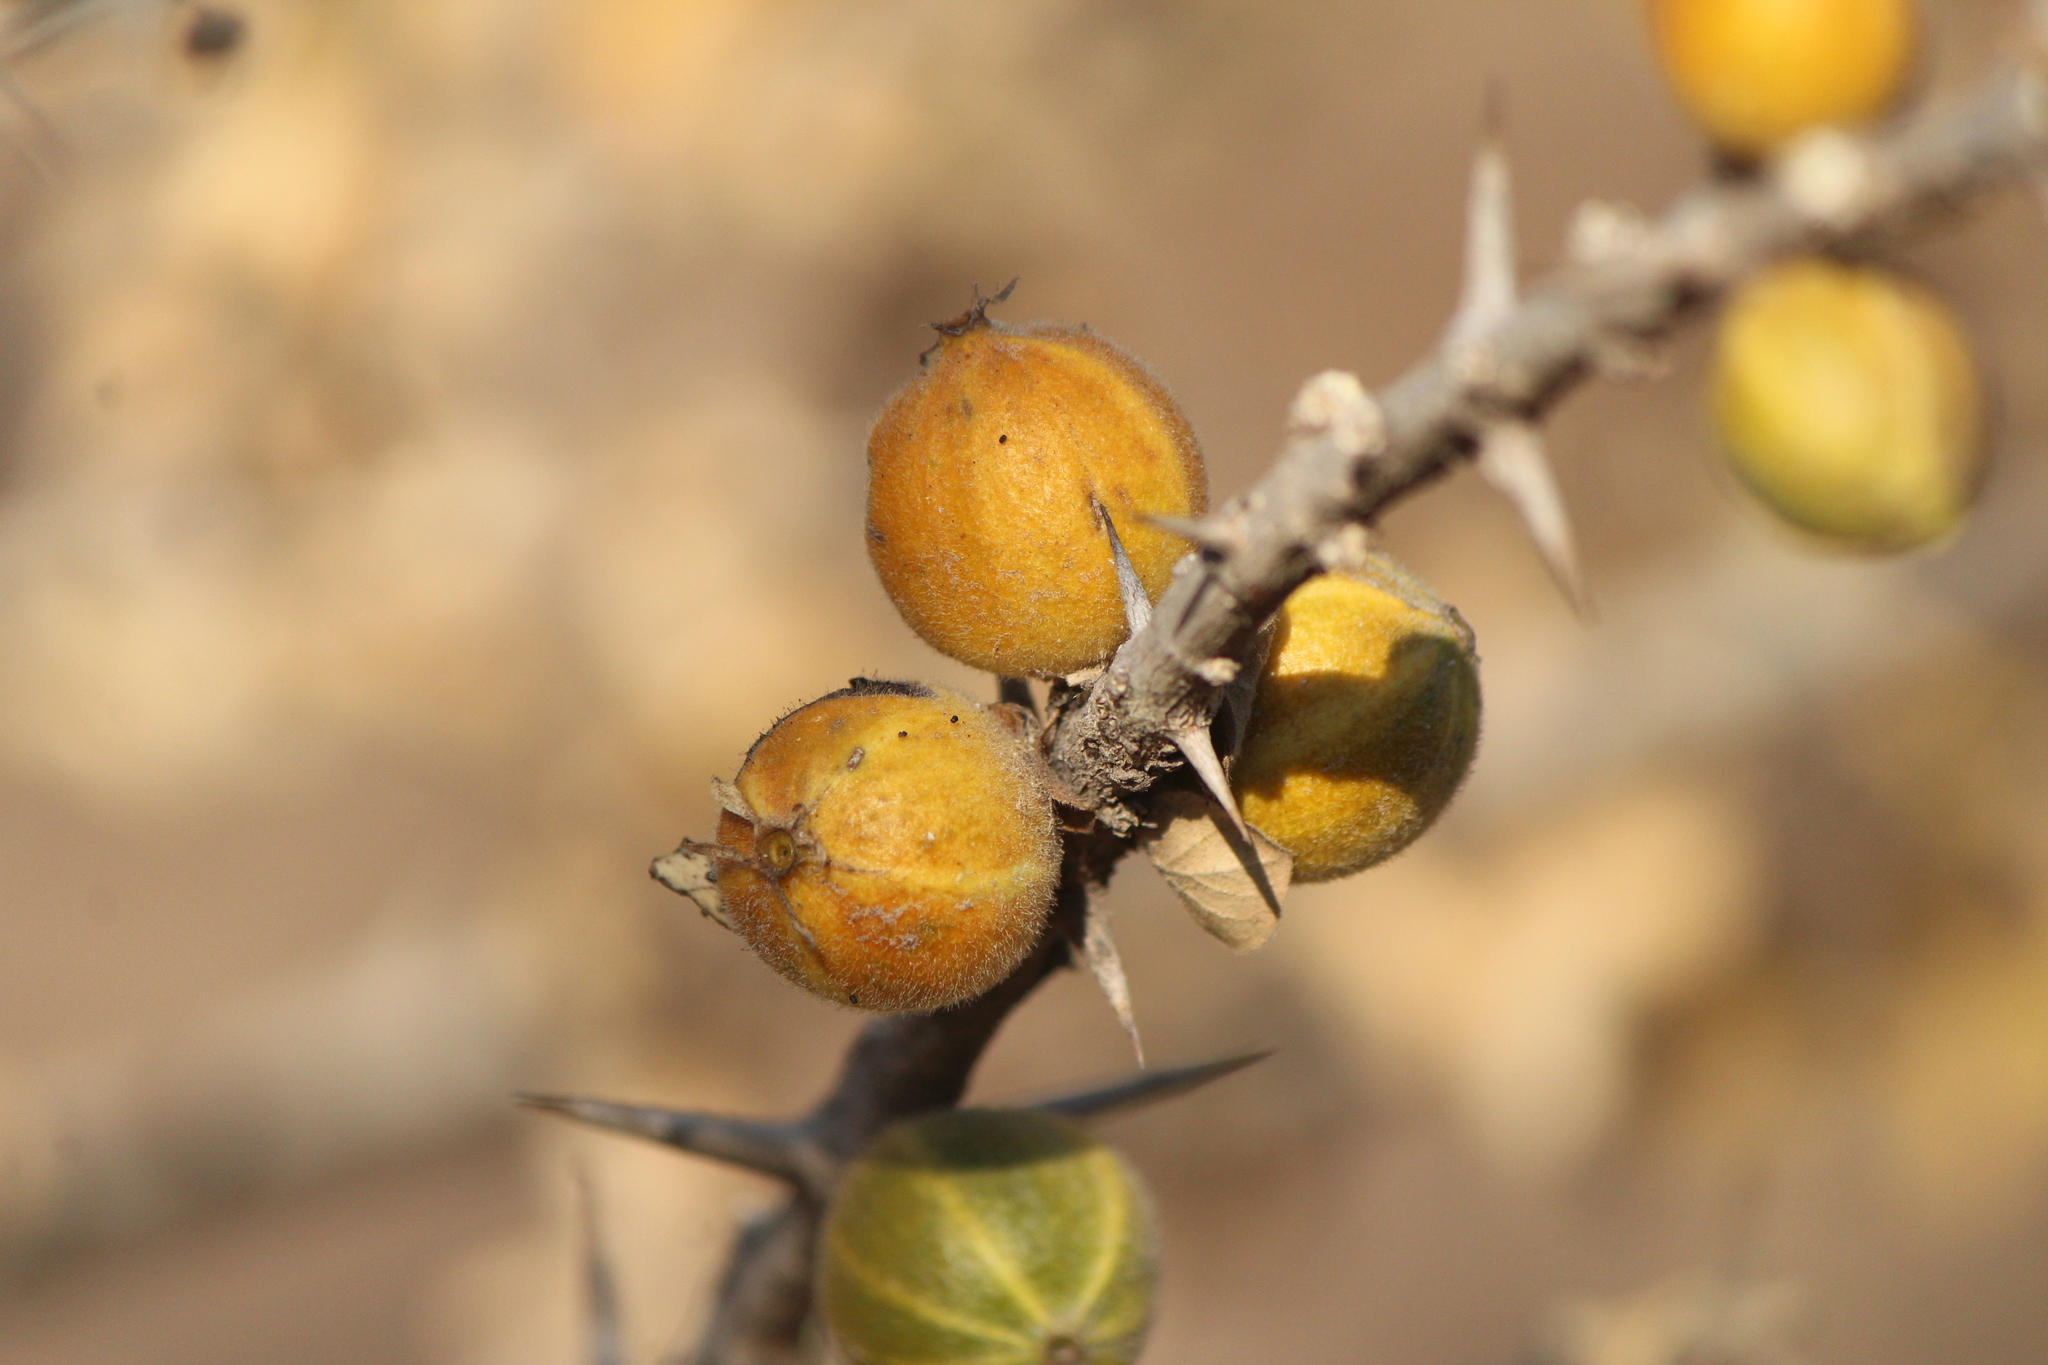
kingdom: Plantae
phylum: Tracheophyta
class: Magnoliopsida
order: Gentianales
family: Rubiaceae
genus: Randia
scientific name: Randia thurberi
